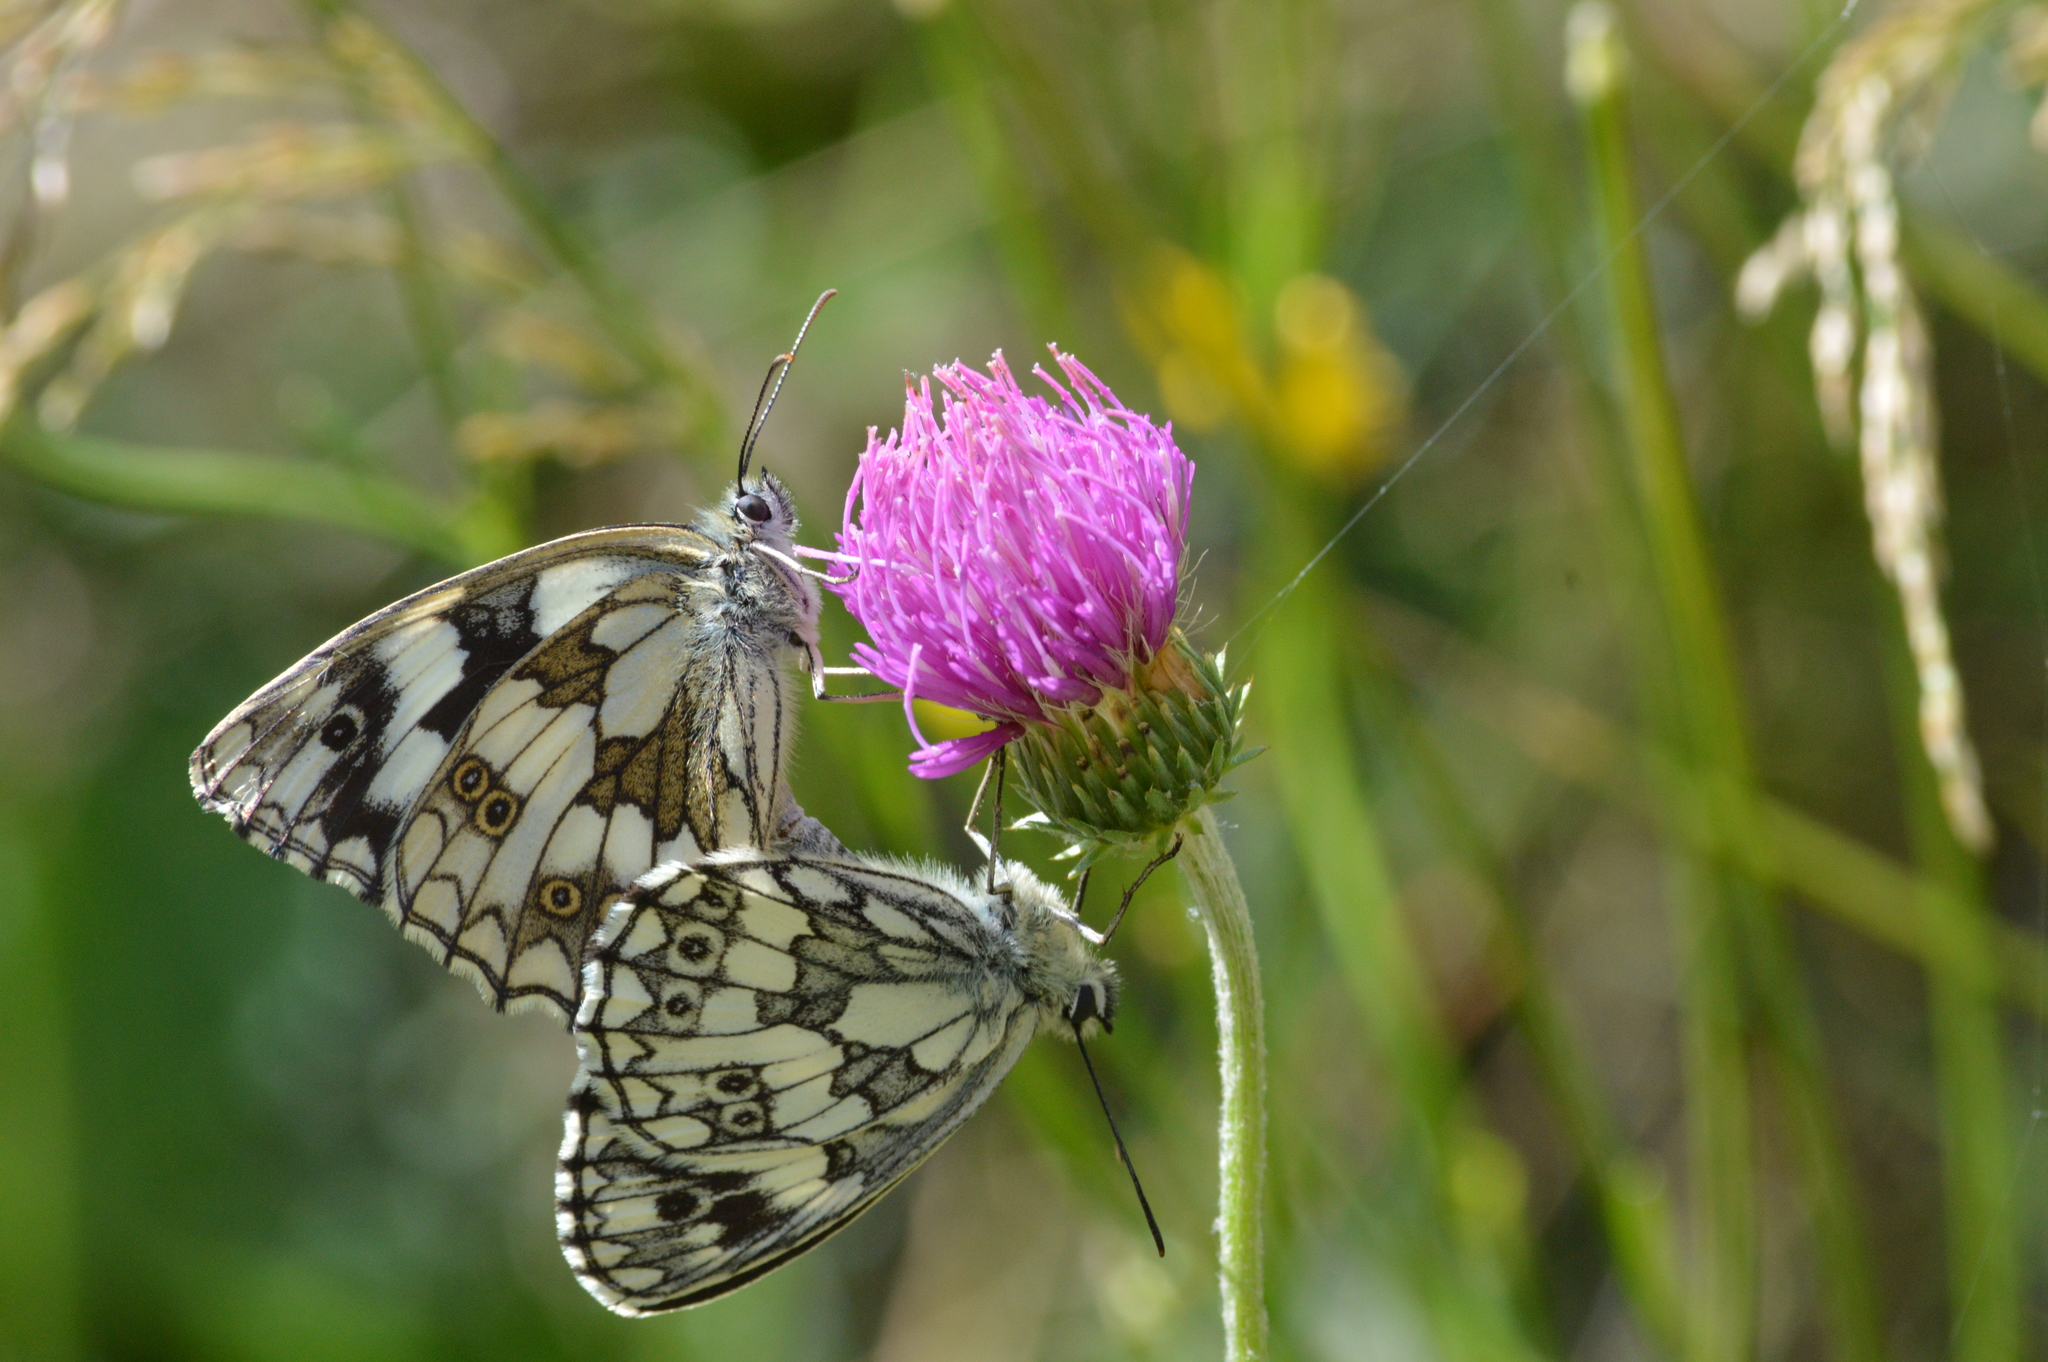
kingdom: Animalia
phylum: Arthropoda
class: Insecta
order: Lepidoptera
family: Nymphalidae
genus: Melanargia
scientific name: Melanargia galathea
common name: Marbled white
